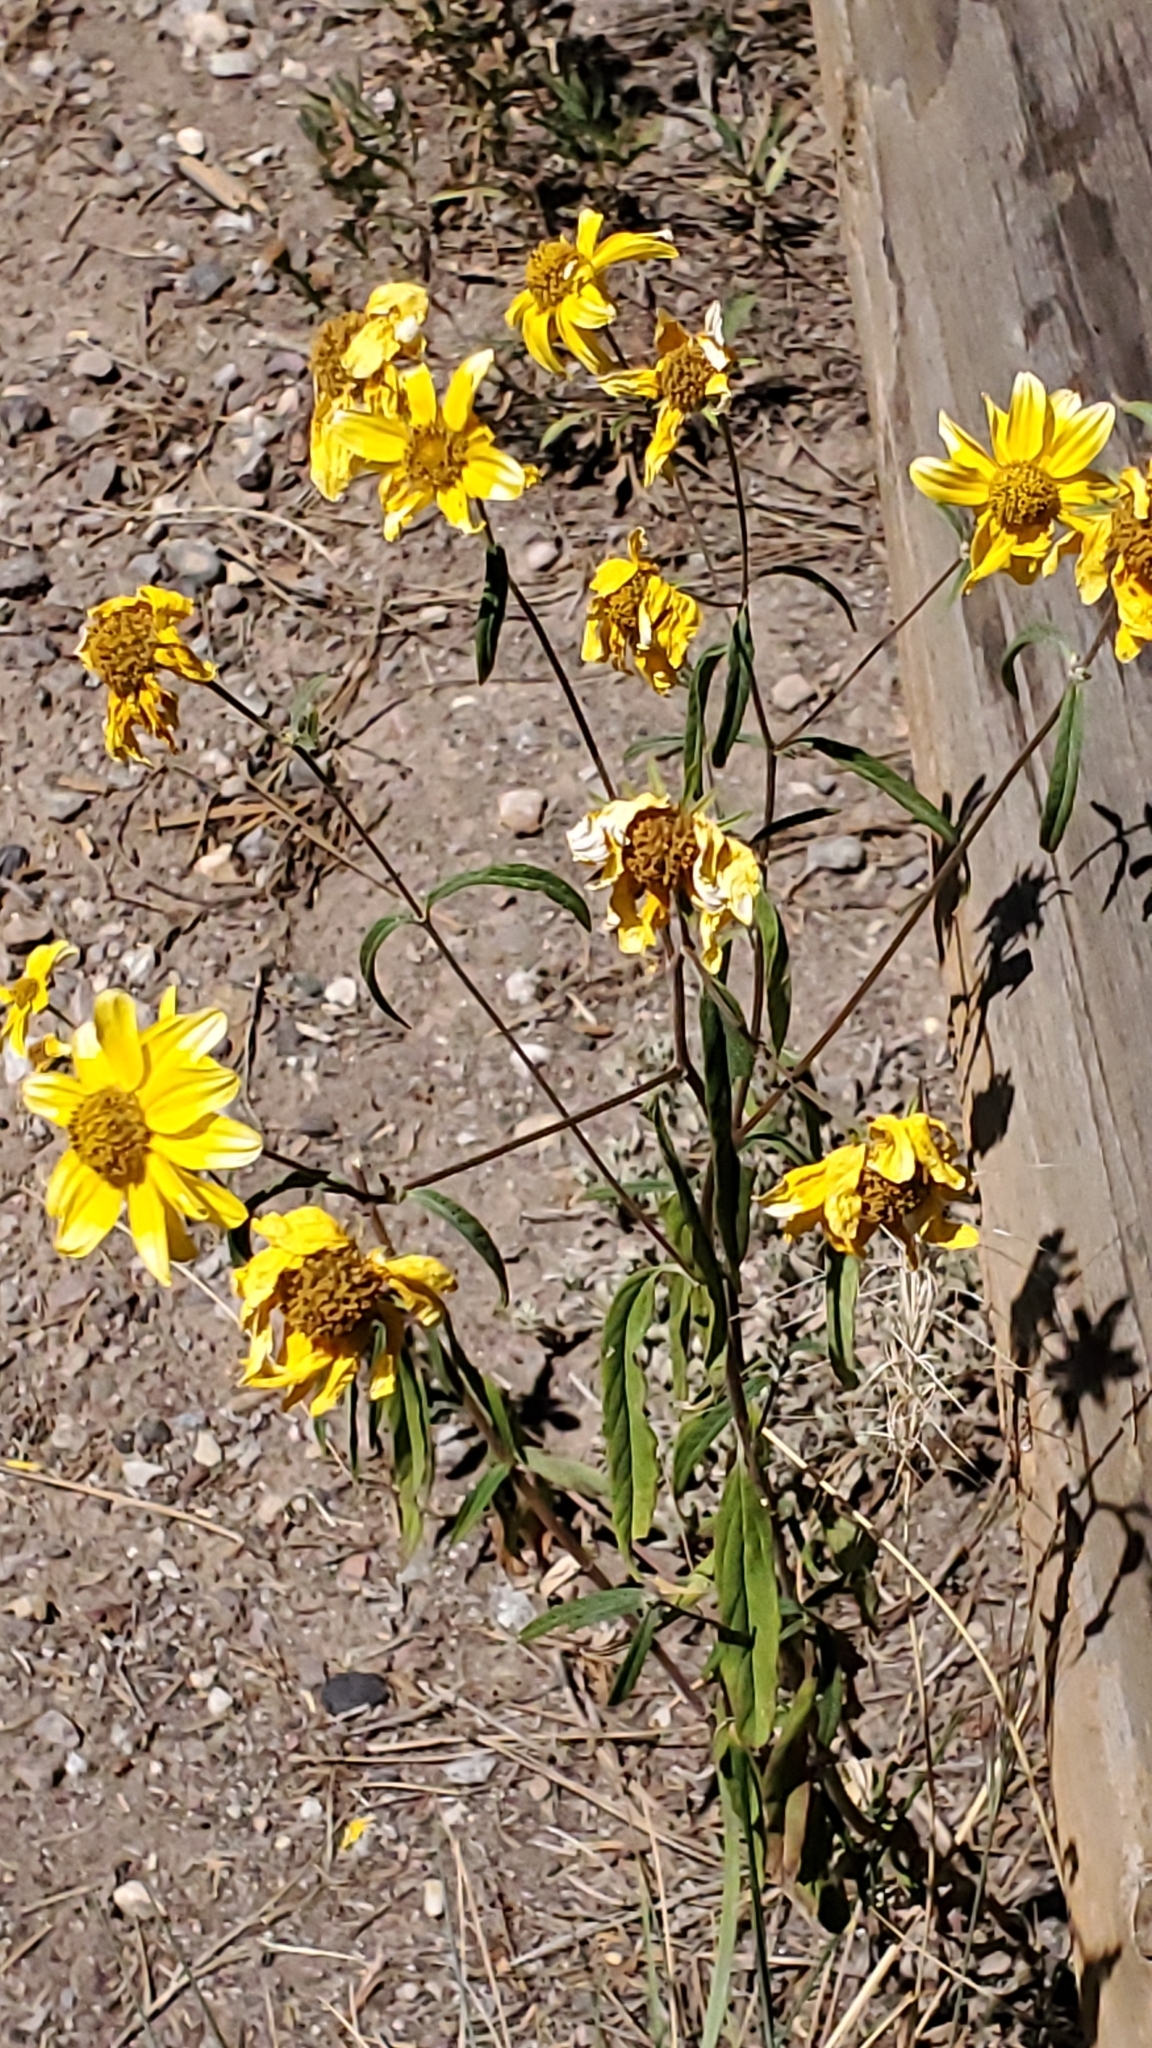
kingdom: Plantae
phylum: Tracheophyta
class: Magnoliopsida
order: Asterales
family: Asteraceae
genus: Heliomeris
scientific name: Heliomeris multiflora
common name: Showy goldeneye
